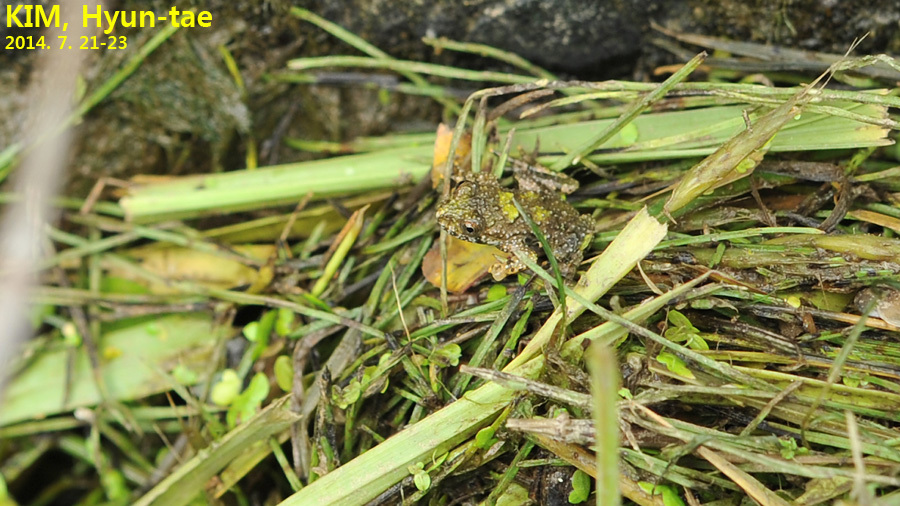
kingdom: Animalia
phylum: Chordata
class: Amphibia
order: Anura
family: Bombinatoridae
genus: Bombina
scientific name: Bombina orientalis
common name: Oriental firebelly toad
